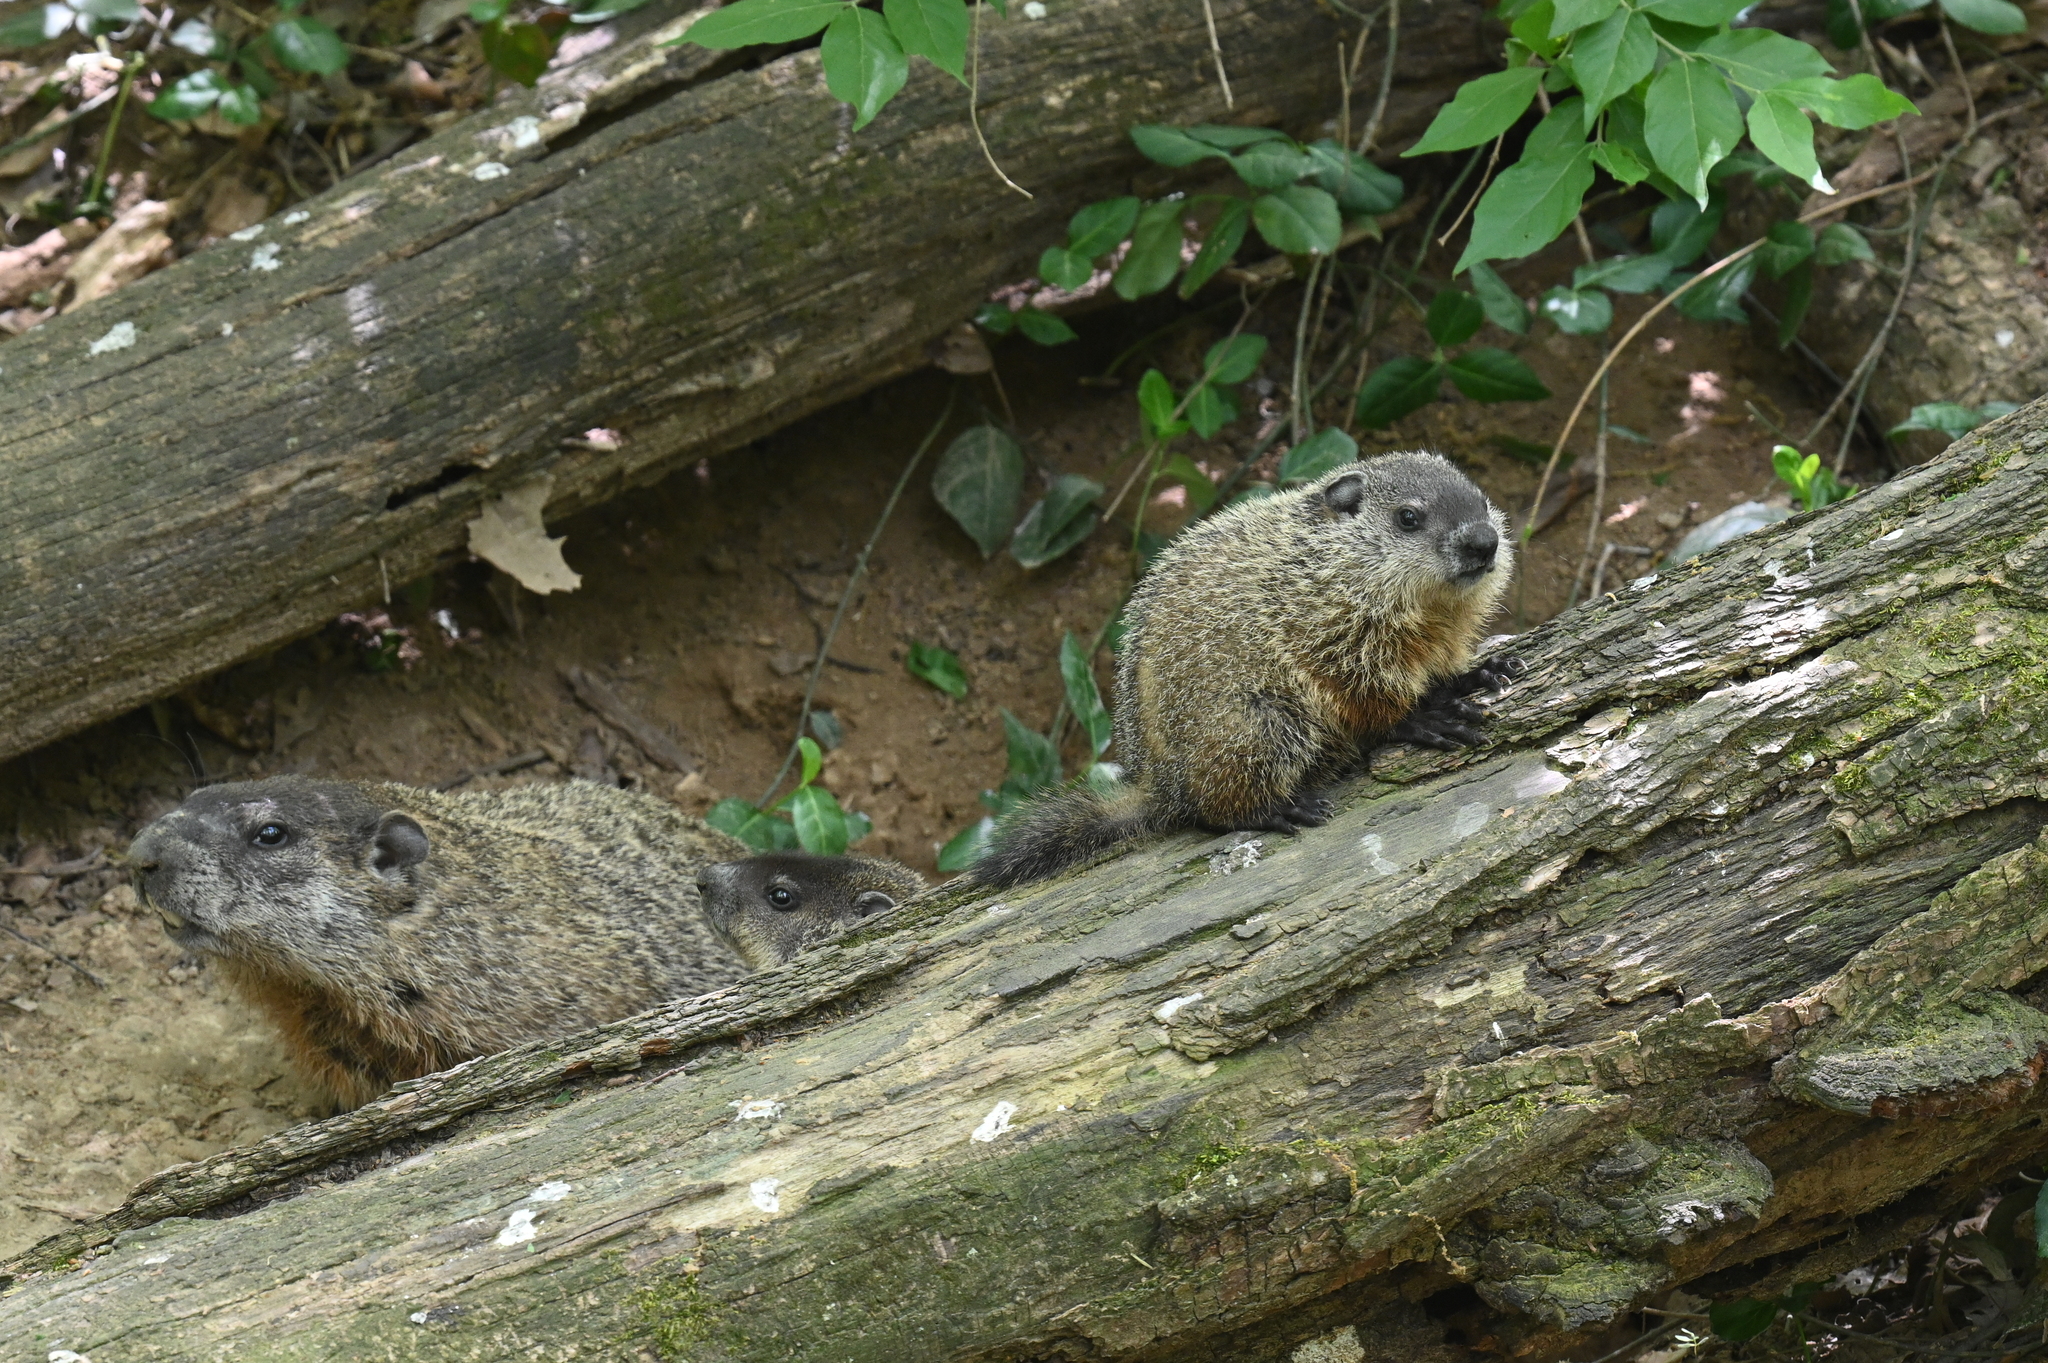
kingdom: Animalia
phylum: Chordata
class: Mammalia
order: Rodentia
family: Sciuridae
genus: Marmota
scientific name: Marmota monax
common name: Groundhog
